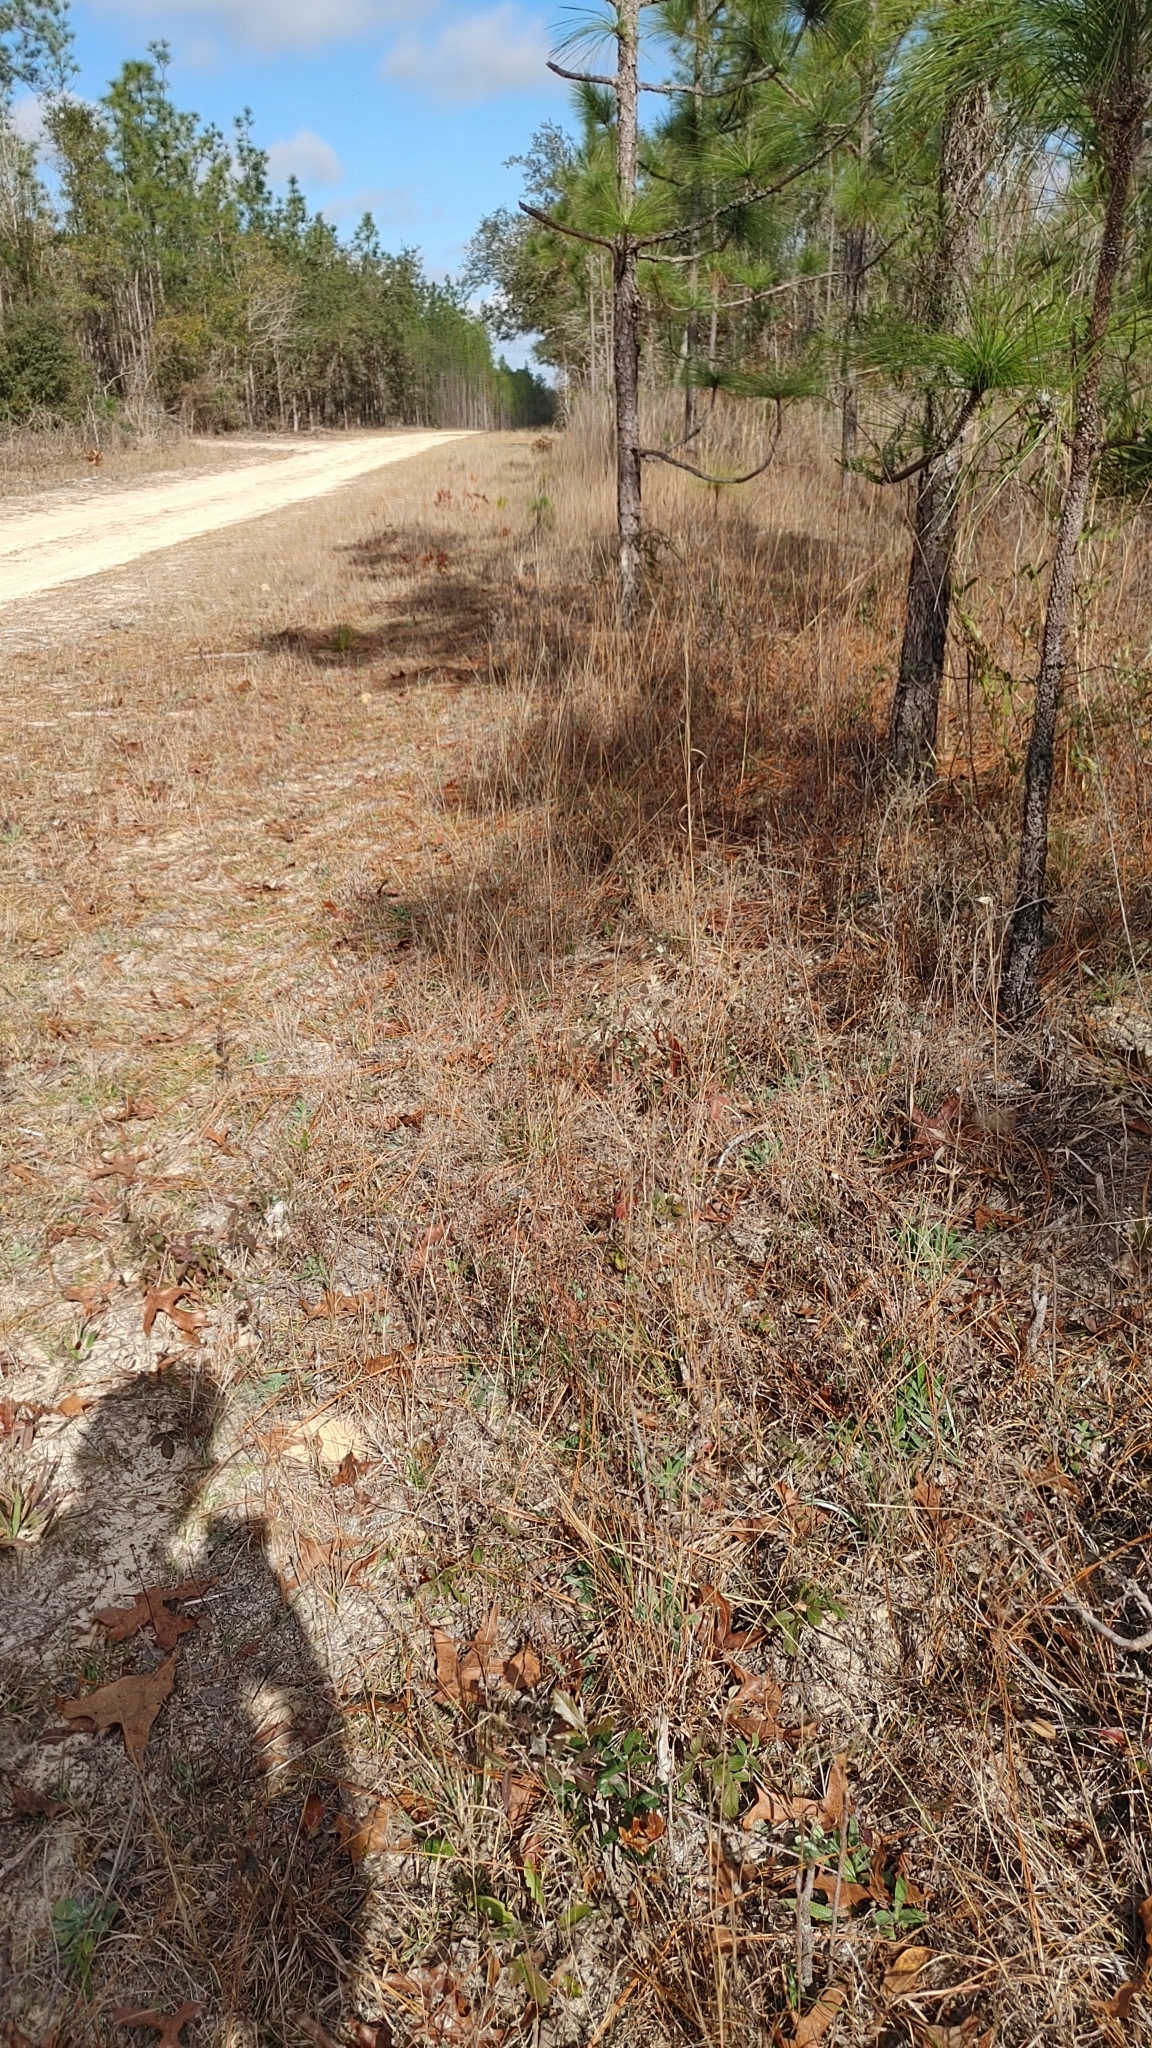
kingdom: Plantae
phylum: Tracheophyta
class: Magnoliopsida
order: Asterales
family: Asteraceae
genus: Pityopsis
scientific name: Pityopsis flexuosa
